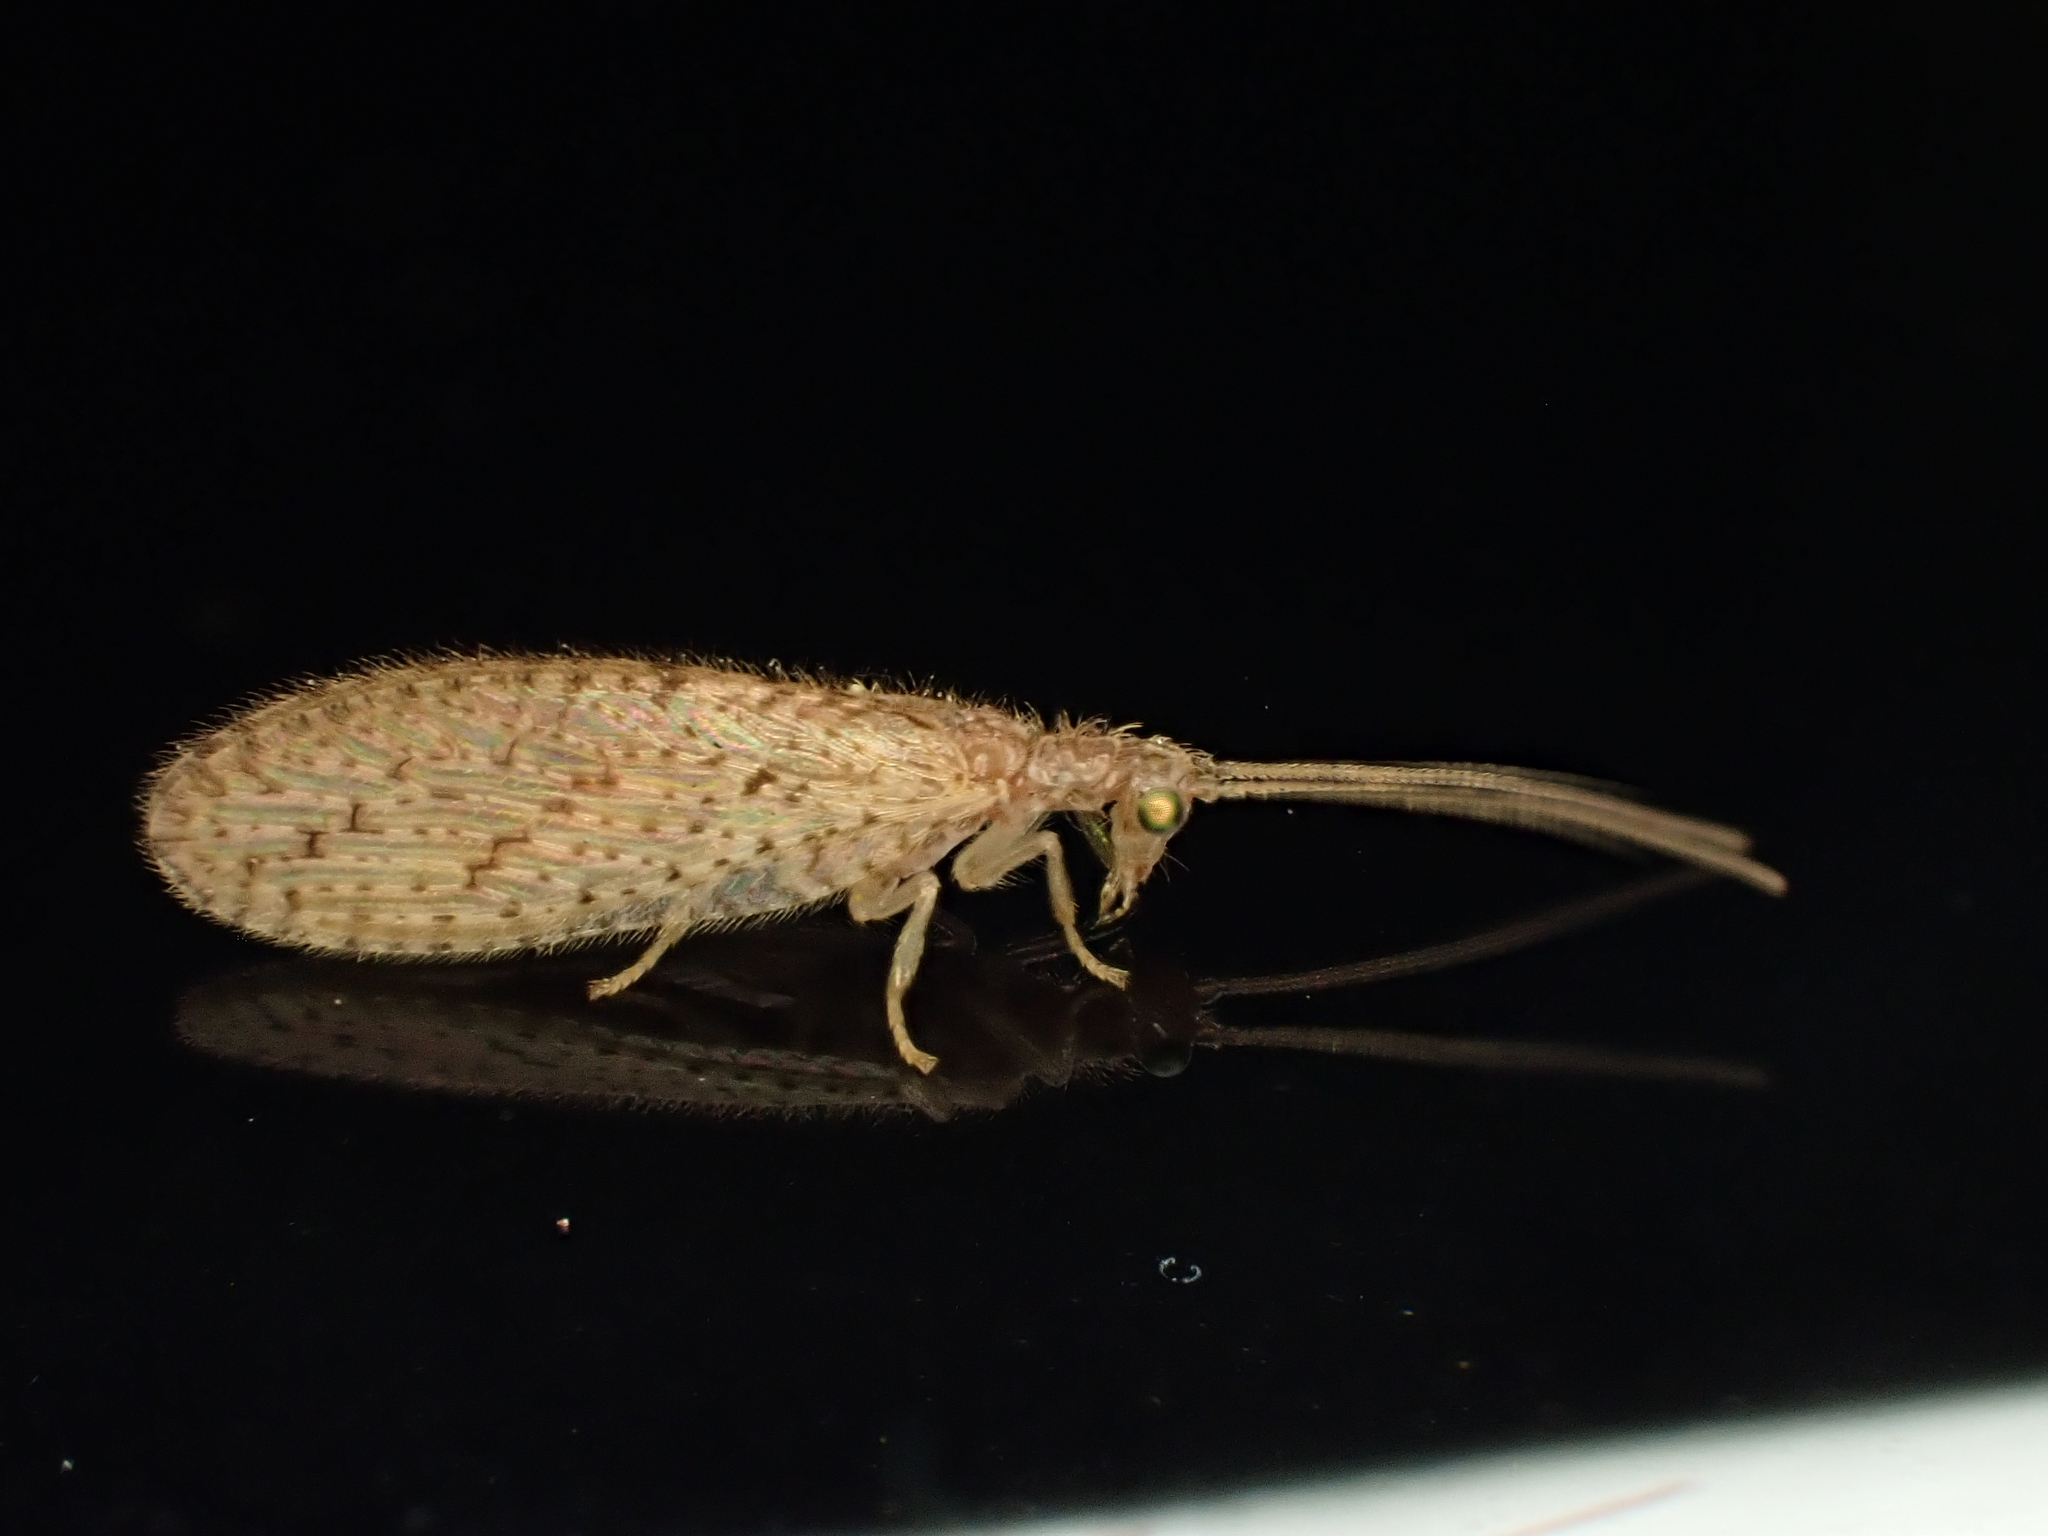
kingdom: Animalia
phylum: Arthropoda
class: Insecta
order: Neuroptera
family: Hemerobiidae
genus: Micromus
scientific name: Micromus tasmaniae
